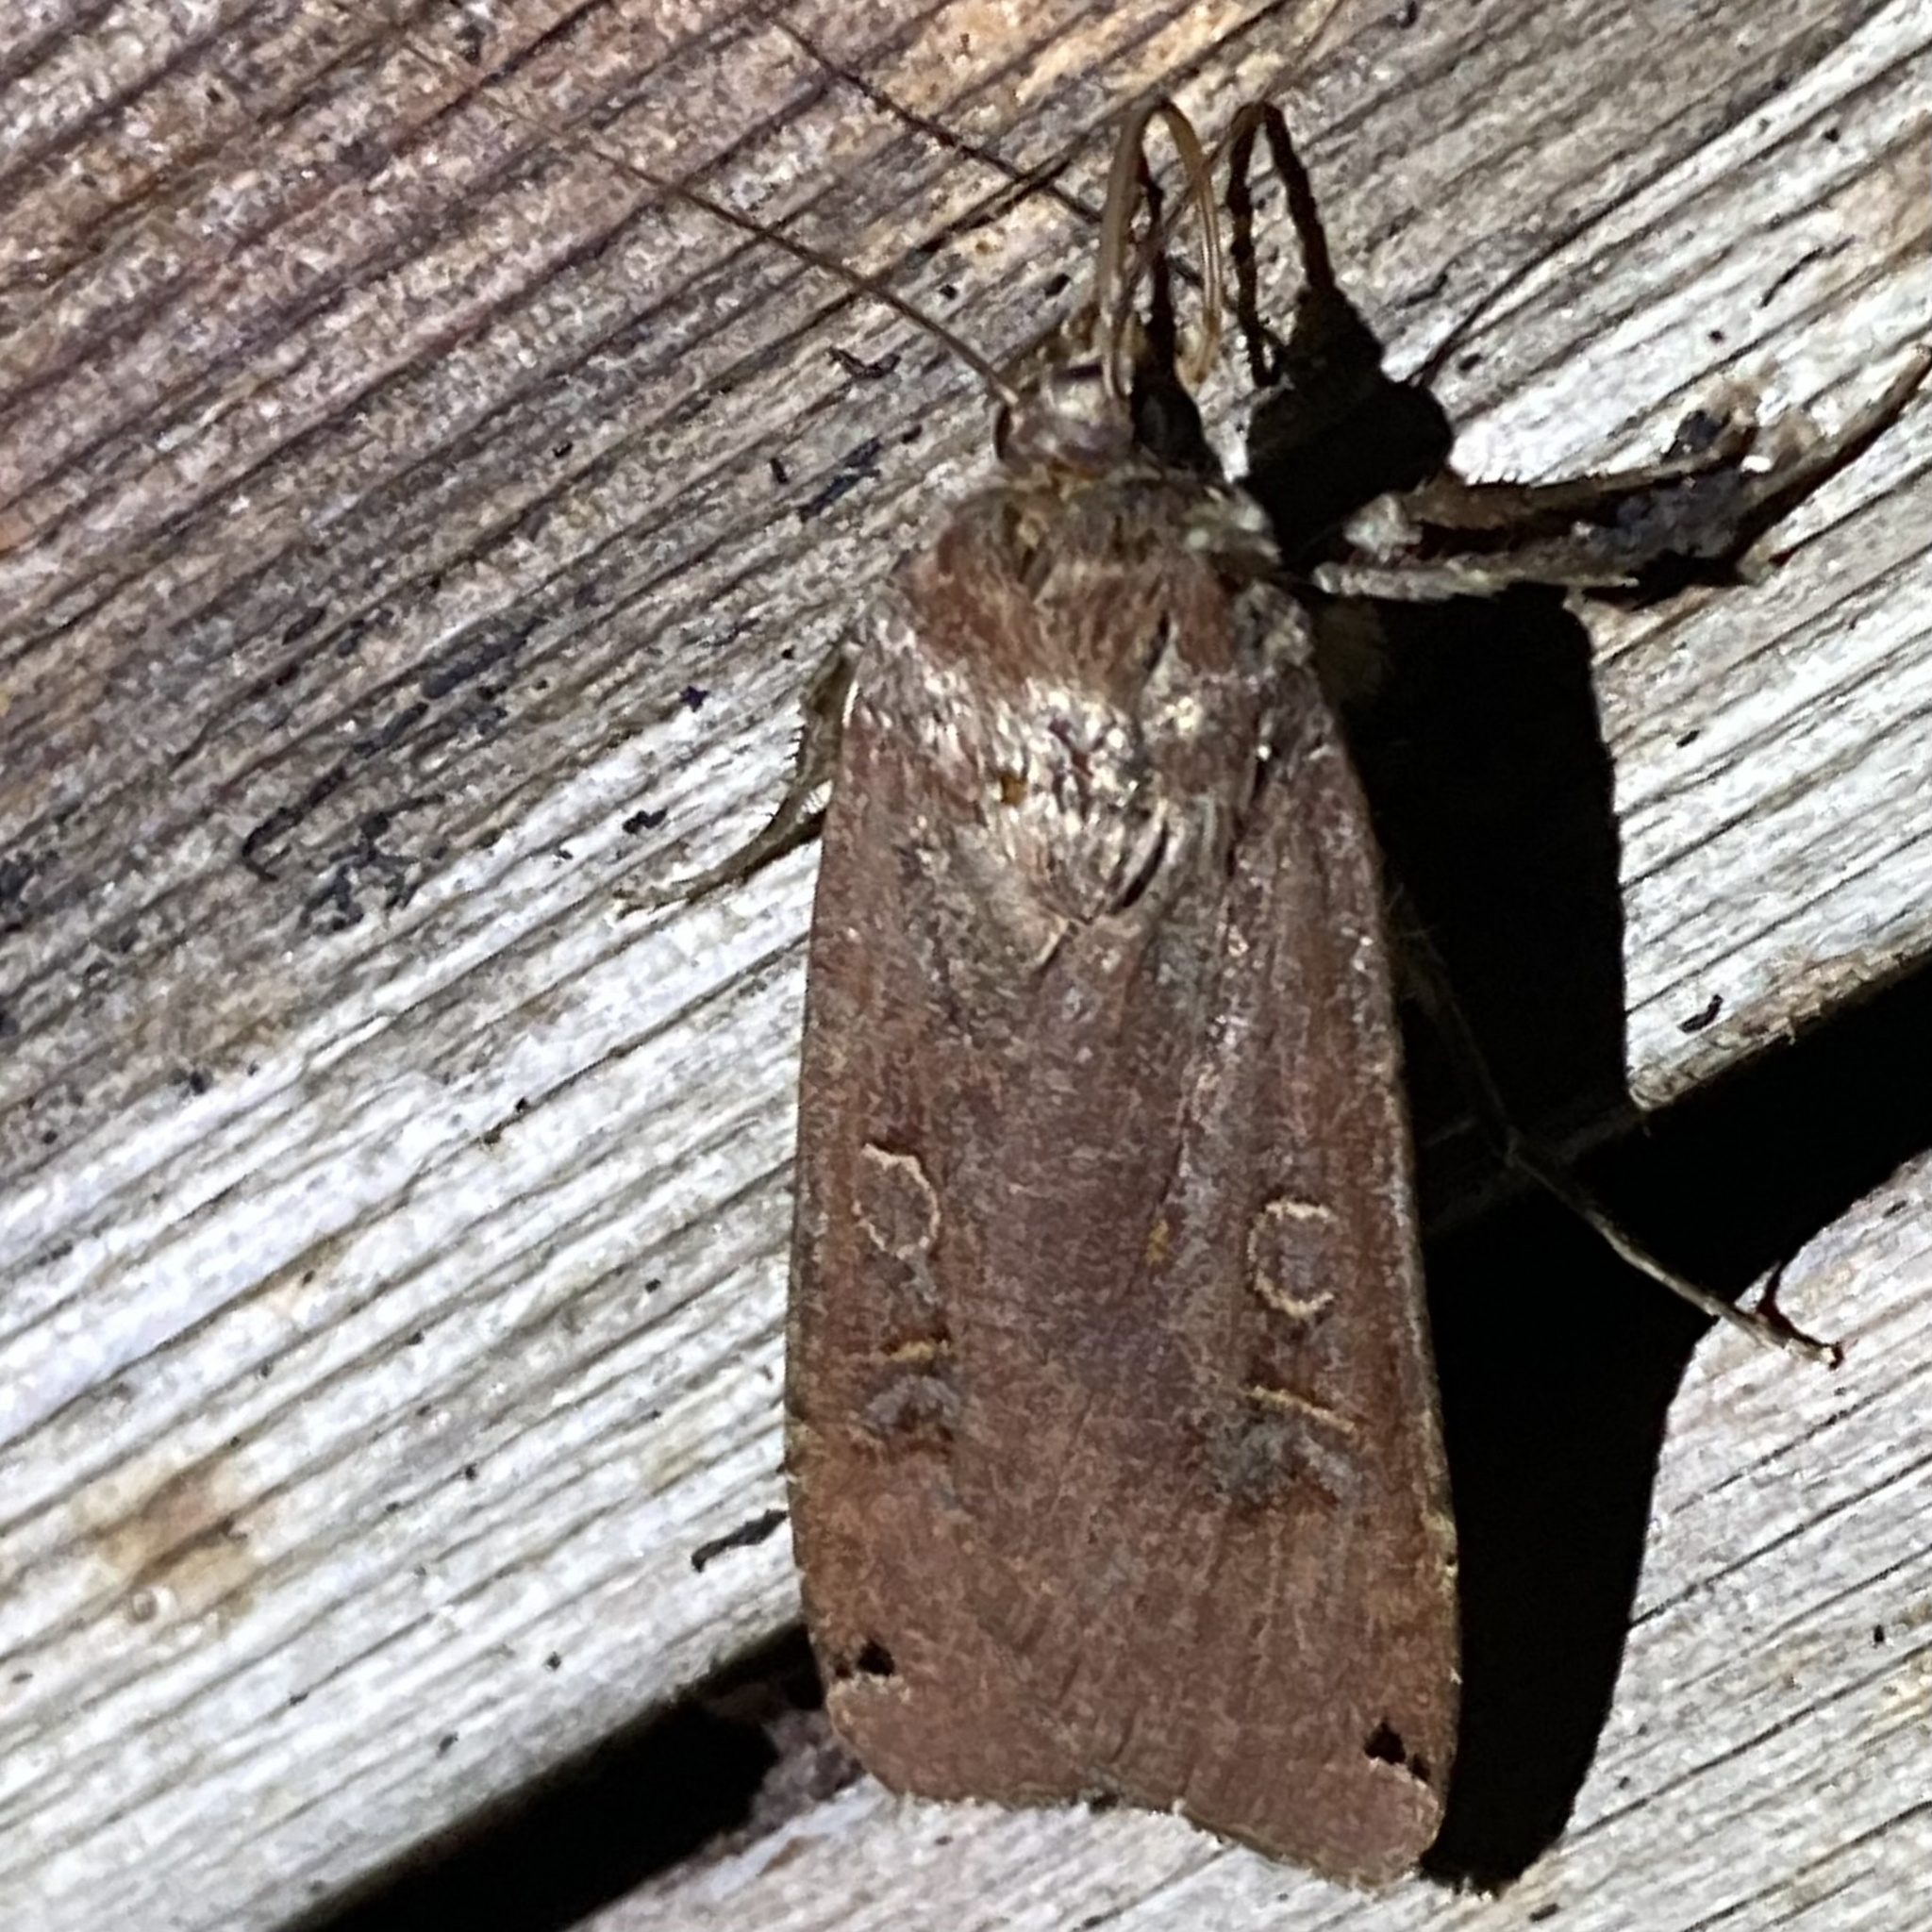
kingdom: Animalia
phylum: Arthropoda
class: Insecta
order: Lepidoptera
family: Noctuidae
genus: Noctua
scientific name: Noctua pronuba
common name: Large yellow underwing
